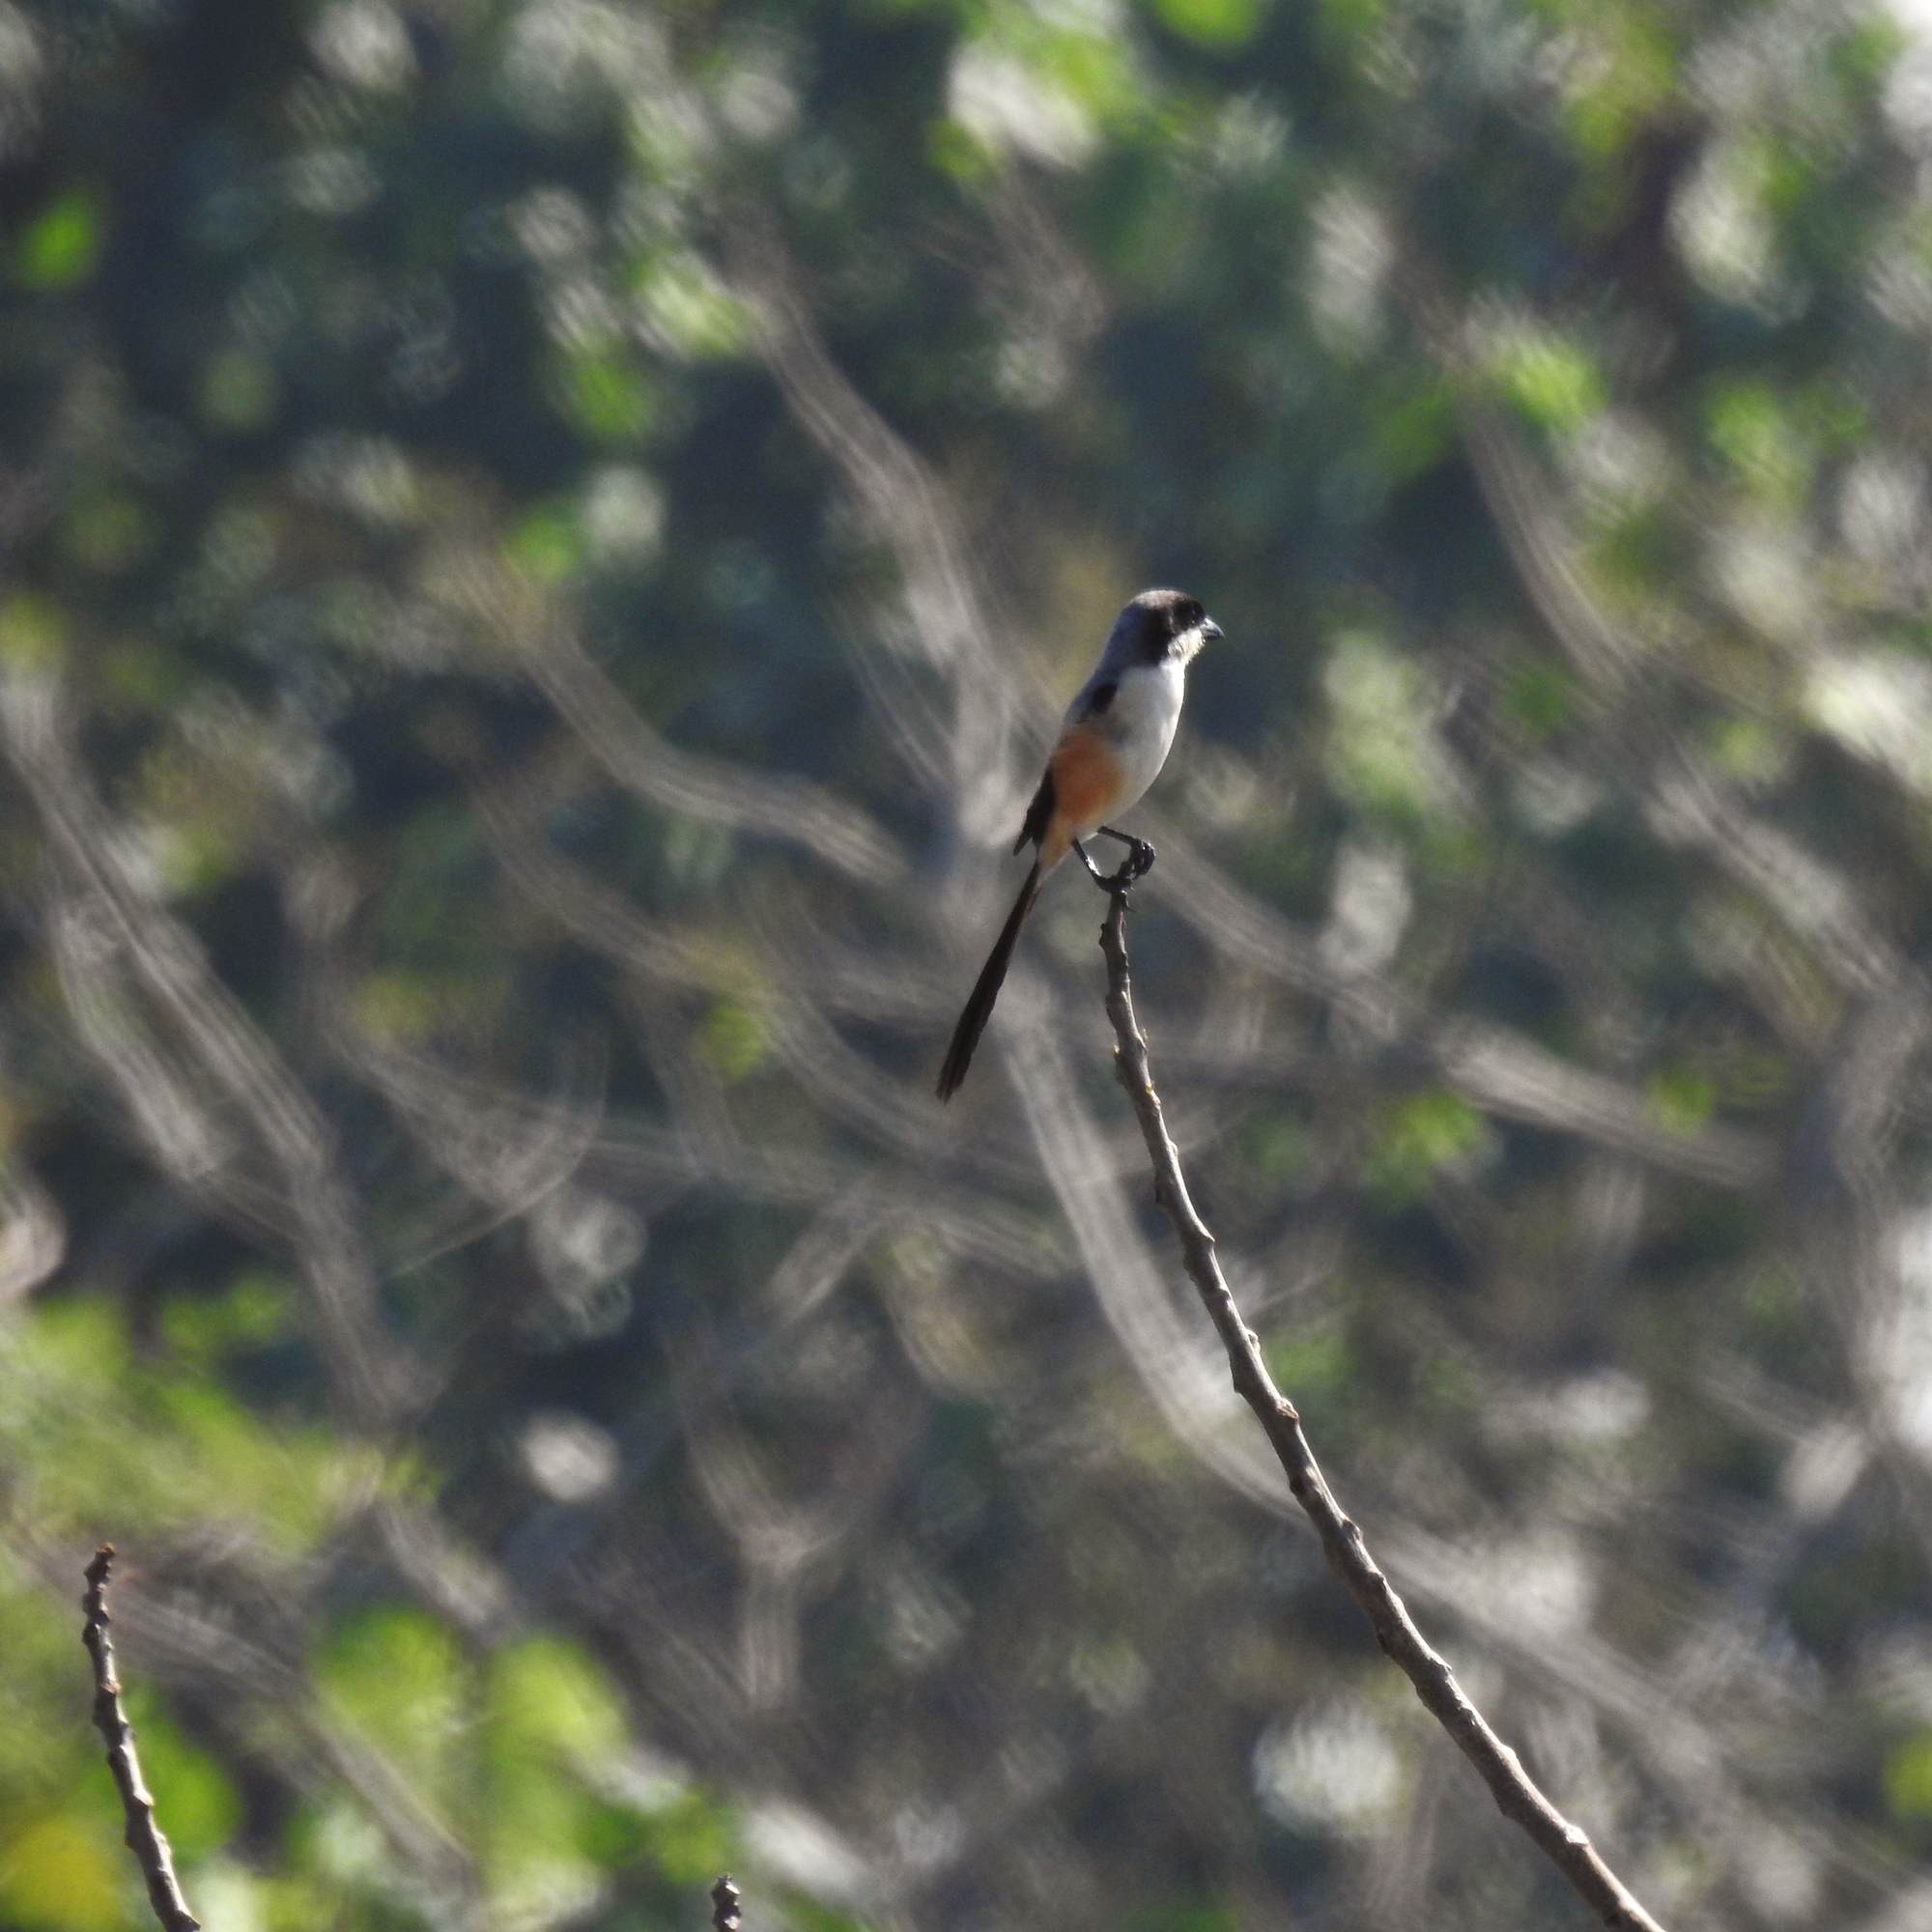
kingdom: Animalia
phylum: Chordata
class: Aves
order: Passeriformes
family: Laniidae
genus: Lanius
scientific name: Lanius schach
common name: Long-tailed shrike
